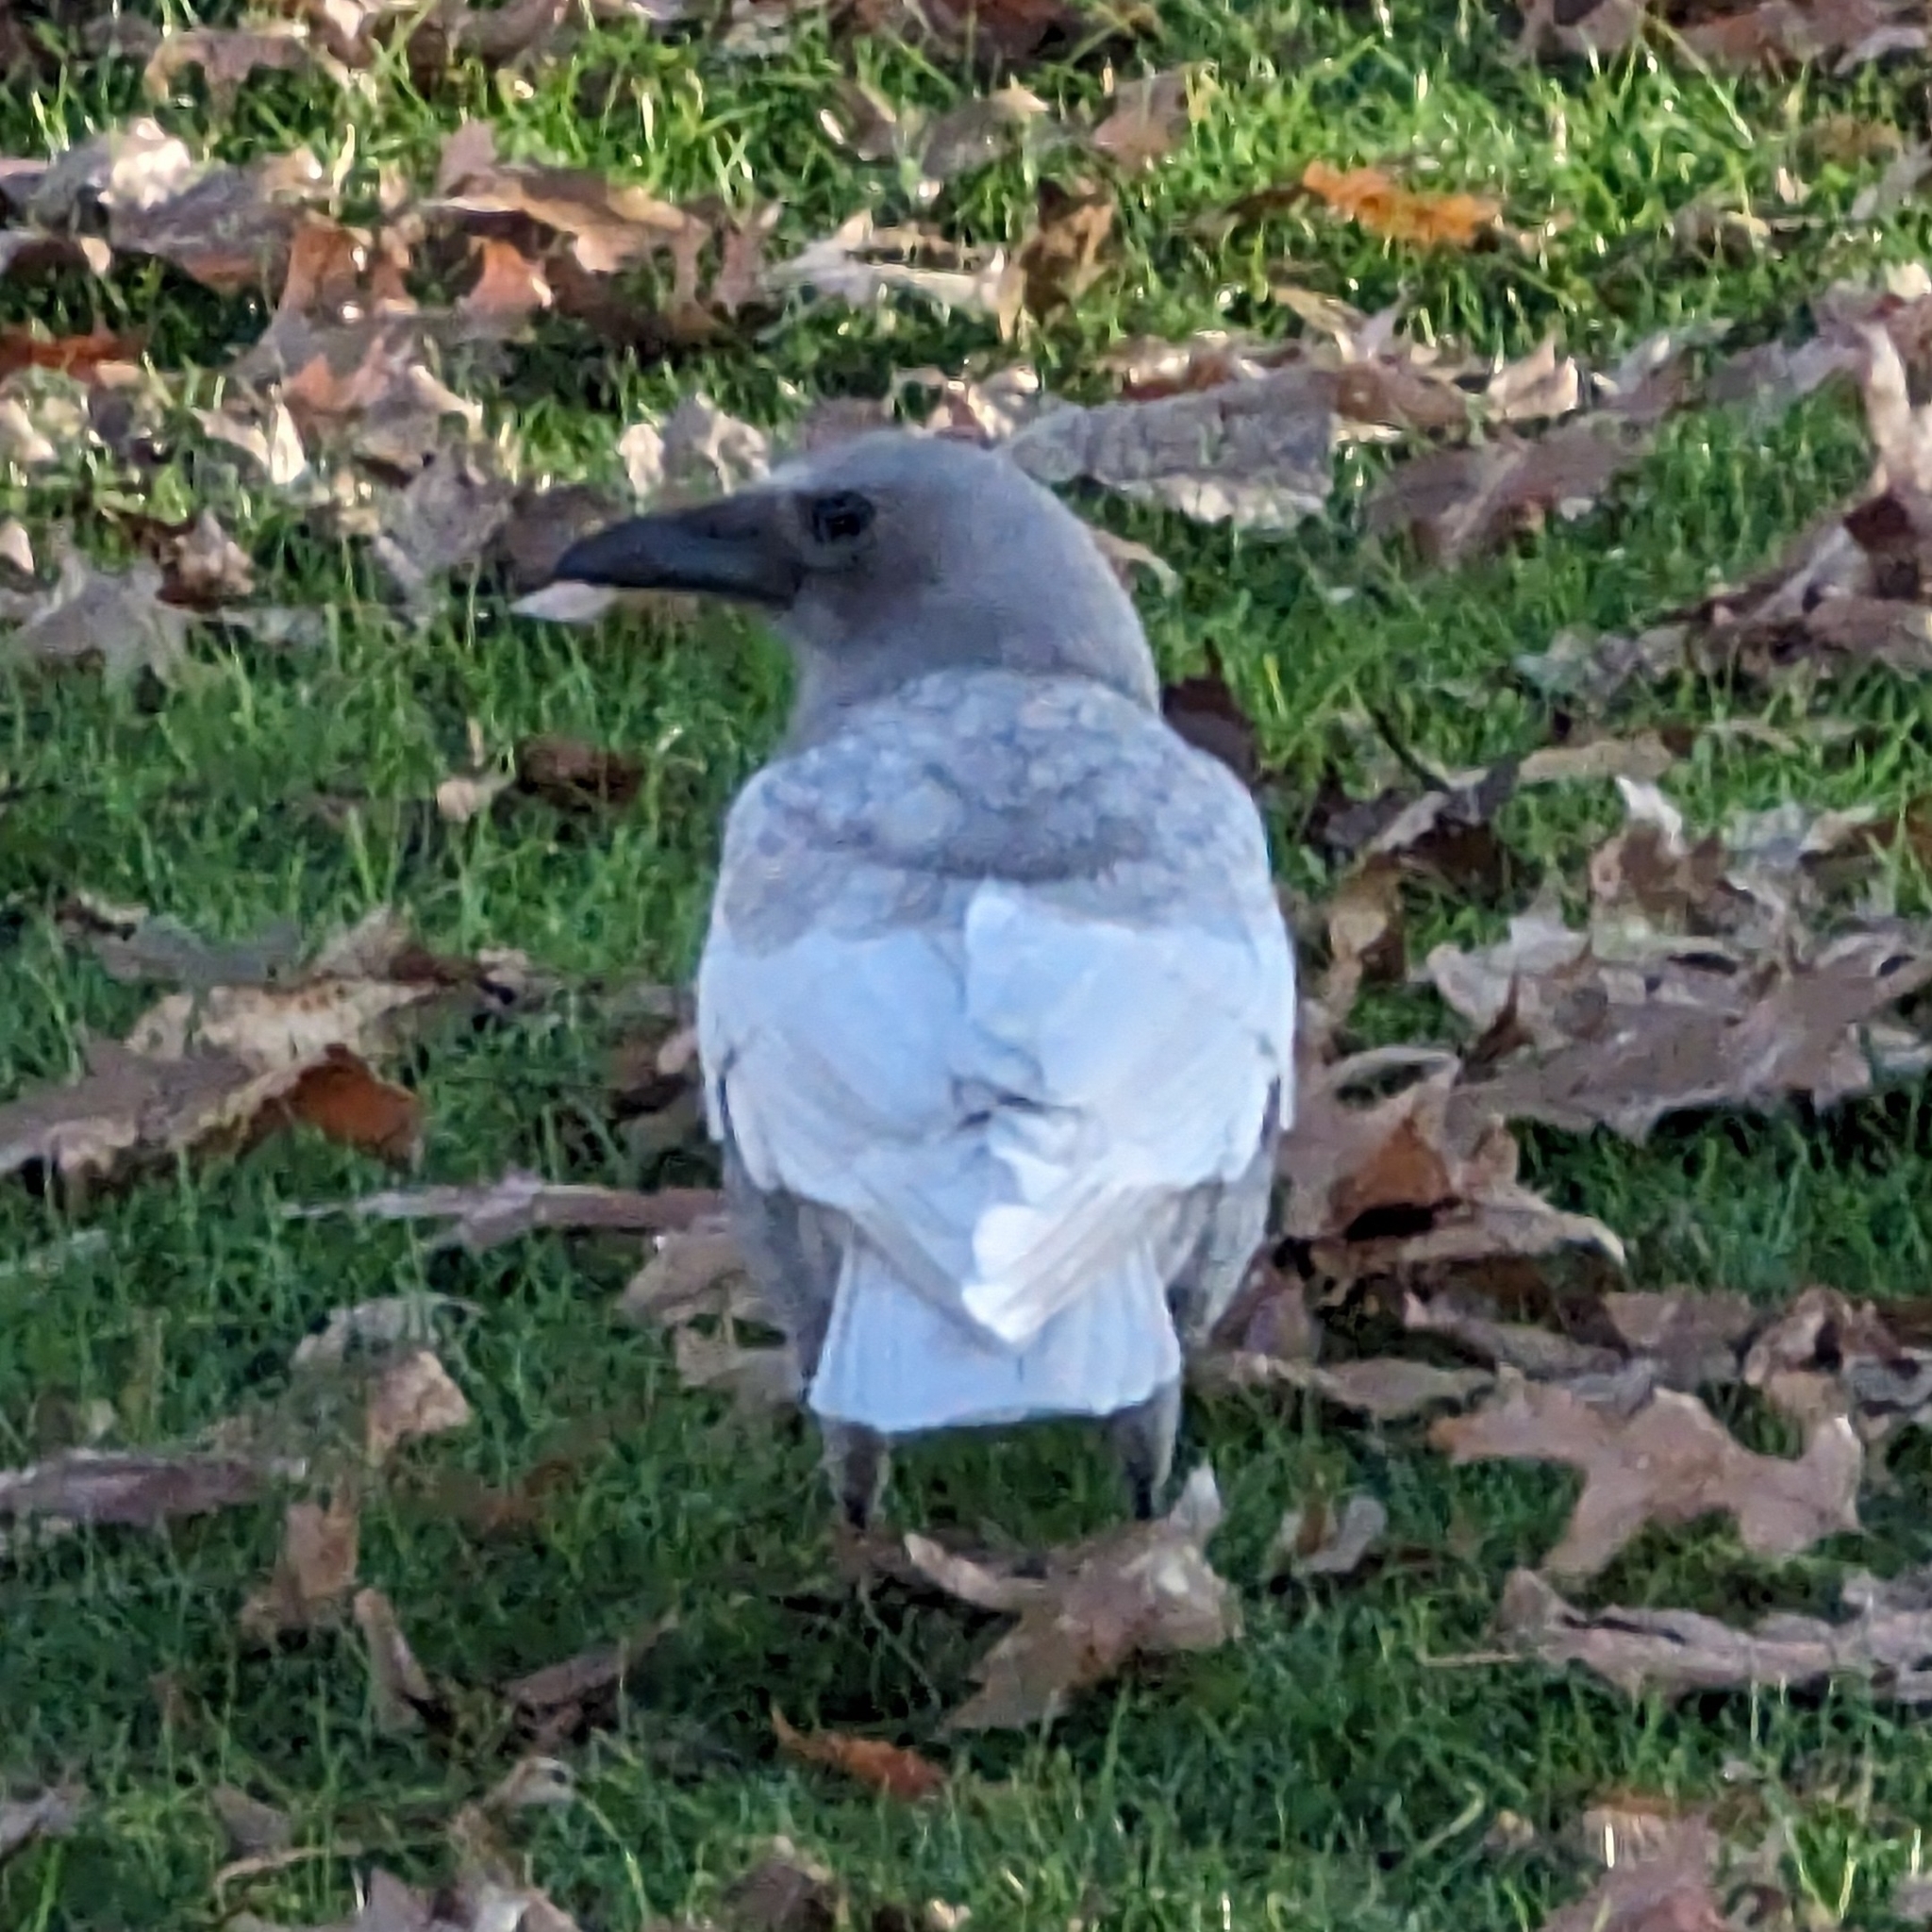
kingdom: Animalia
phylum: Chordata
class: Aves
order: Passeriformes
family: Corvidae
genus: Corvus
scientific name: Corvus brachyrhynchos
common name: American crow
